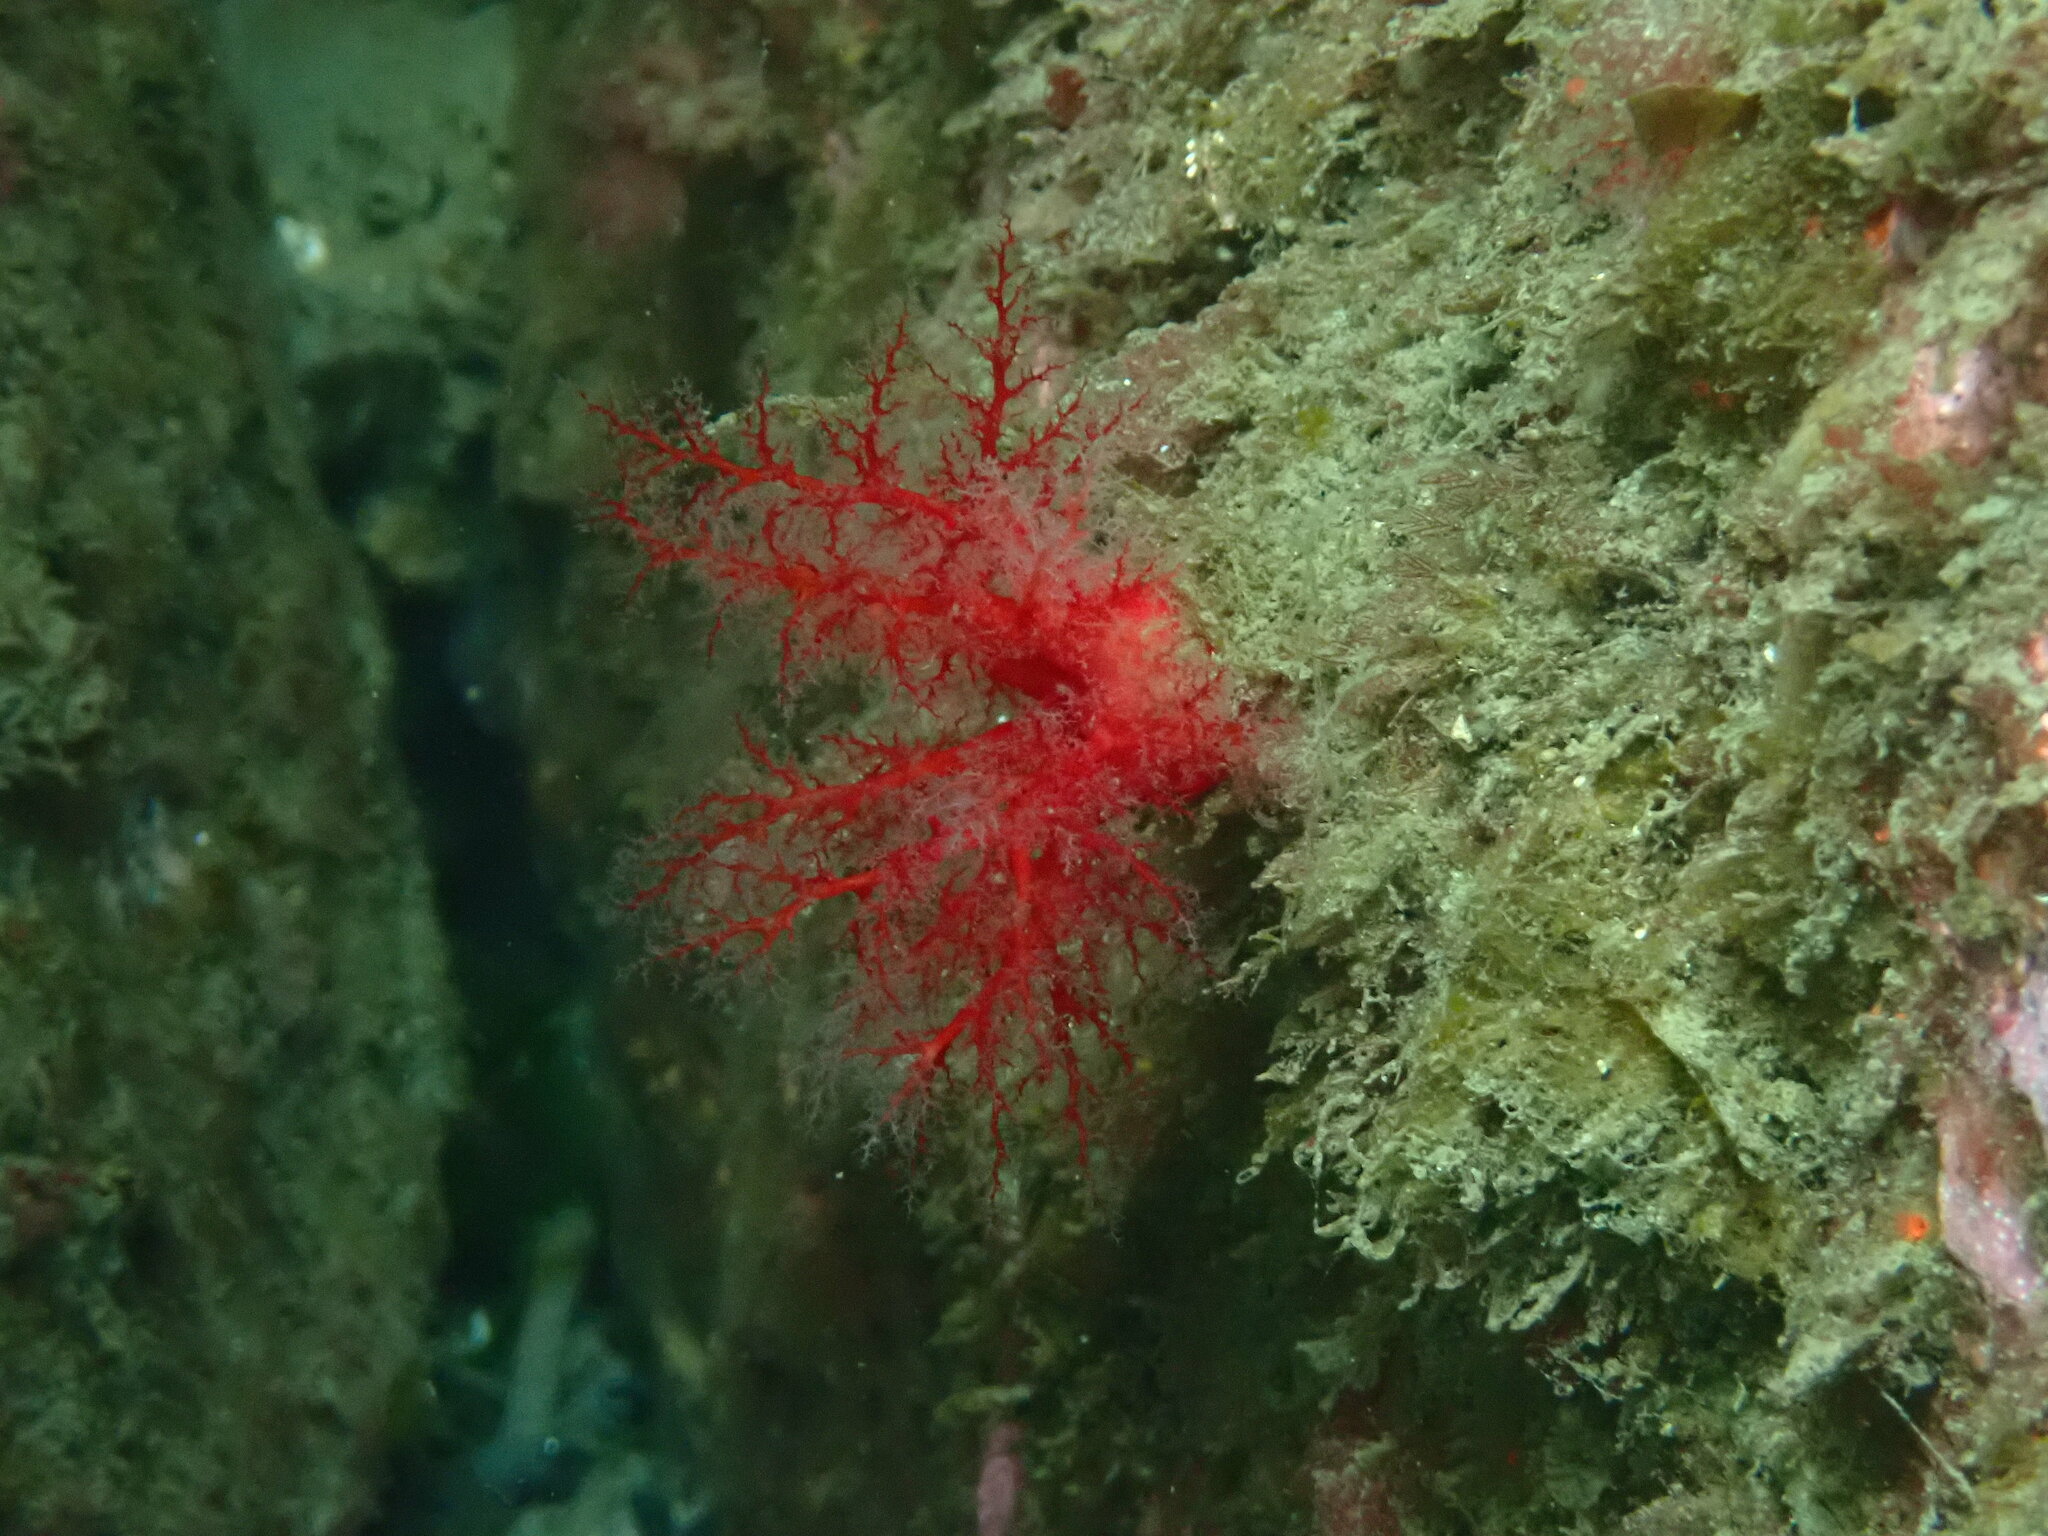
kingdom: Animalia
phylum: Echinodermata
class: Holothuroidea
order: Dendrochirotida
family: Psolidae
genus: Psolus
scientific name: Psolus chitonoides
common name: Creeping pedal sea cucumber
